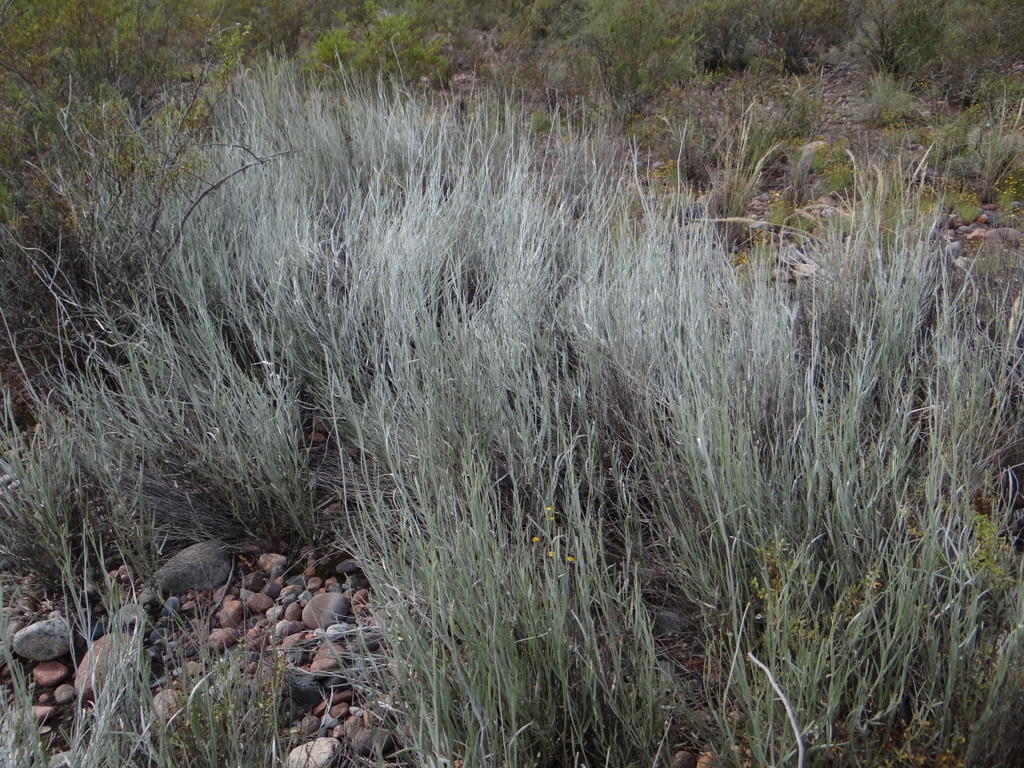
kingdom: Plantae
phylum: Tracheophyta
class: Magnoliopsida
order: Asterales
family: Asteraceae
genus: Hyalis
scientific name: Hyalis argentea
